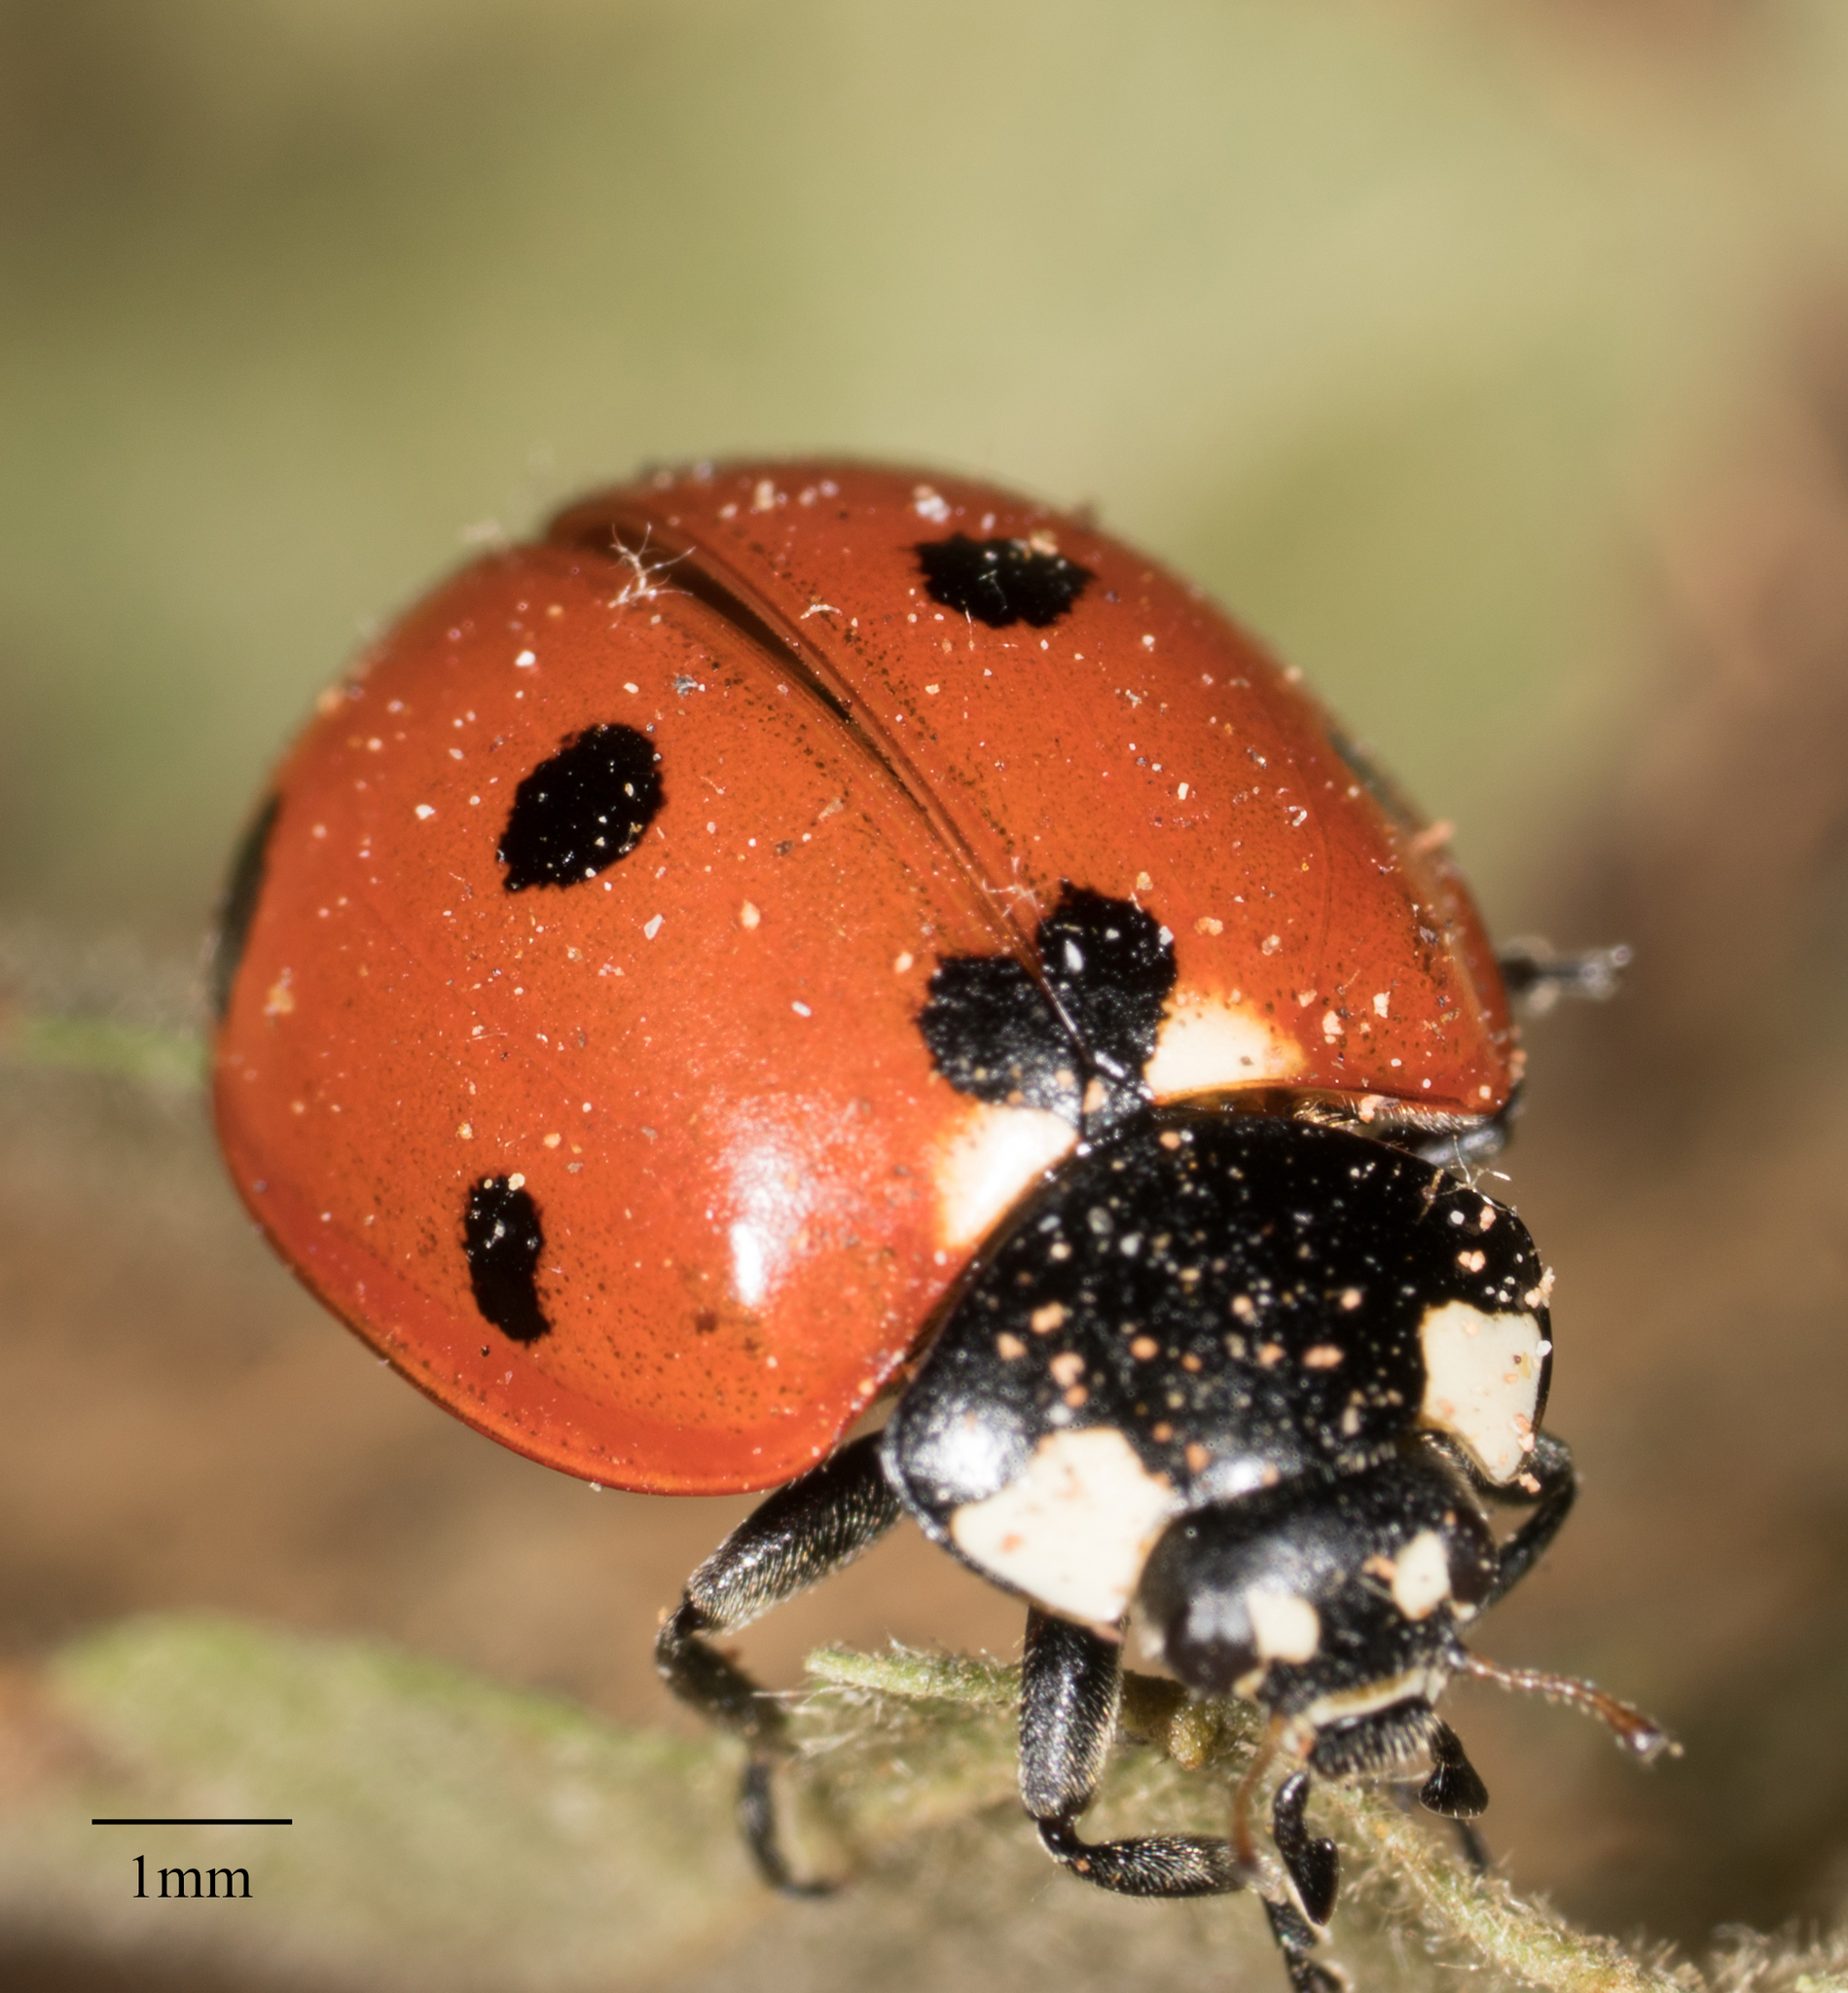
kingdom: Animalia
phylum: Arthropoda
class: Insecta
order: Coleoptera
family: Coccinellidae
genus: Coccinella
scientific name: Coccinella septempunctata
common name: Sevenspotted lady beetle
